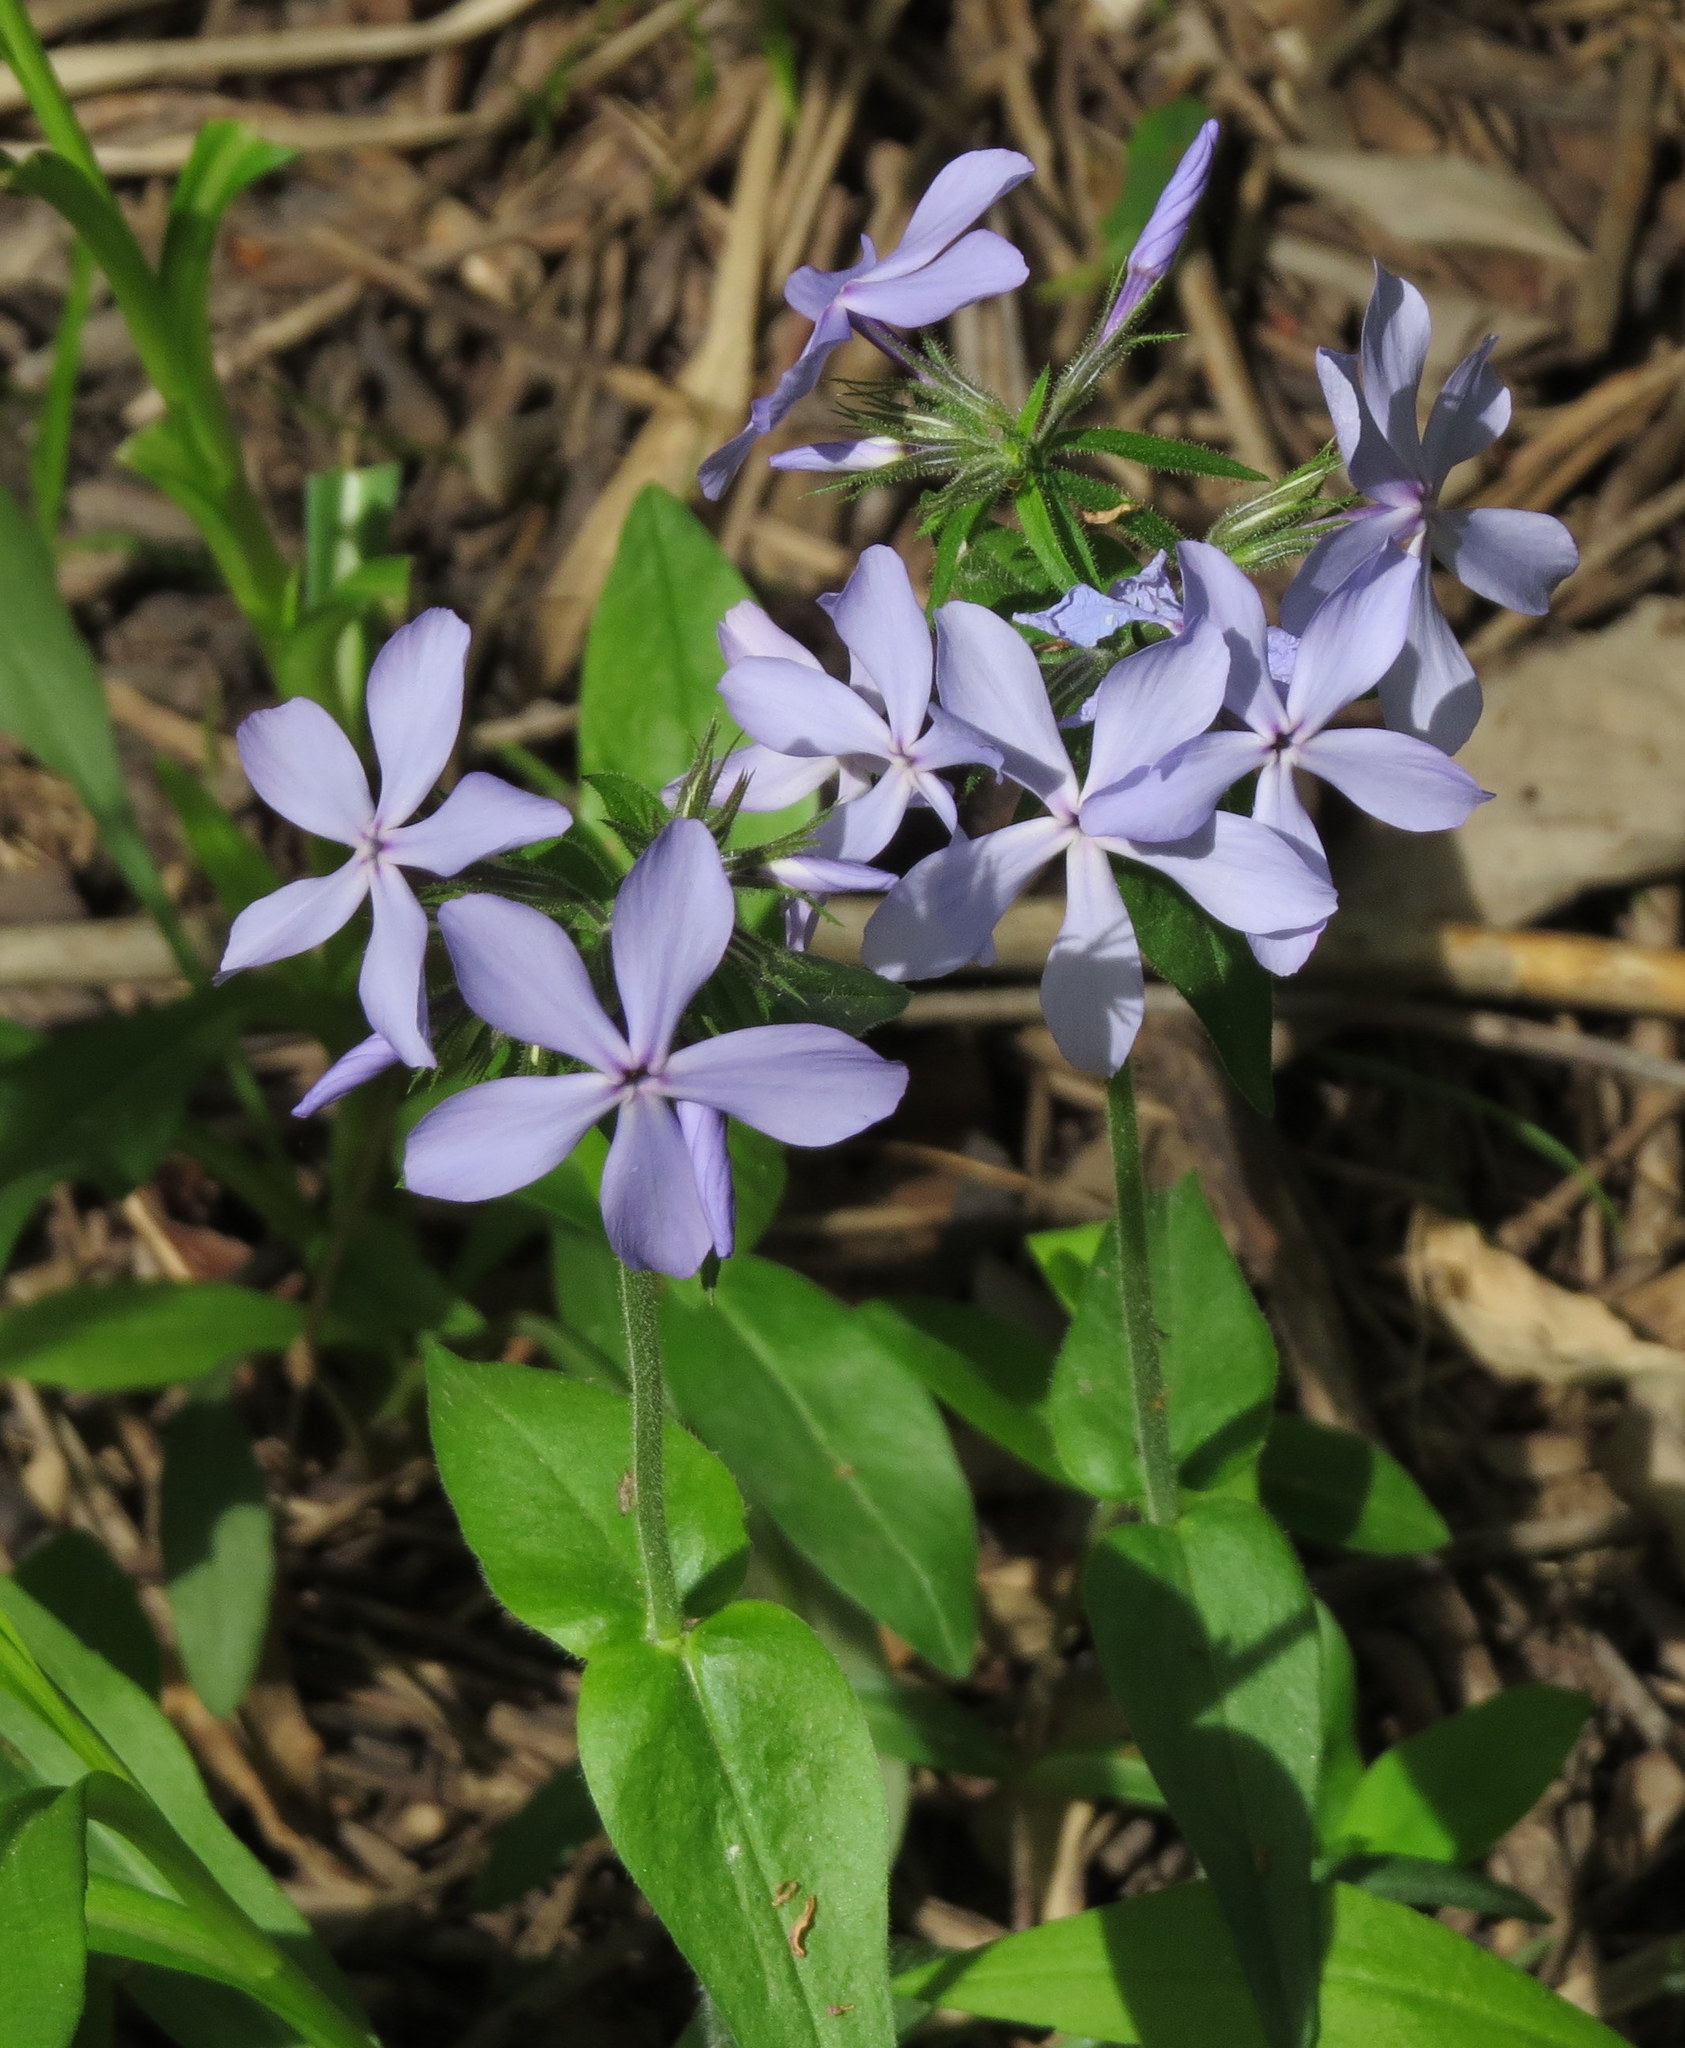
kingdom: Plantae
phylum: Tracheophyta
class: Magnoliopsida
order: Ericales
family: Polemoniaceae
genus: Phlox
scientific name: Phlox divaricata
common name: Blue phlox
